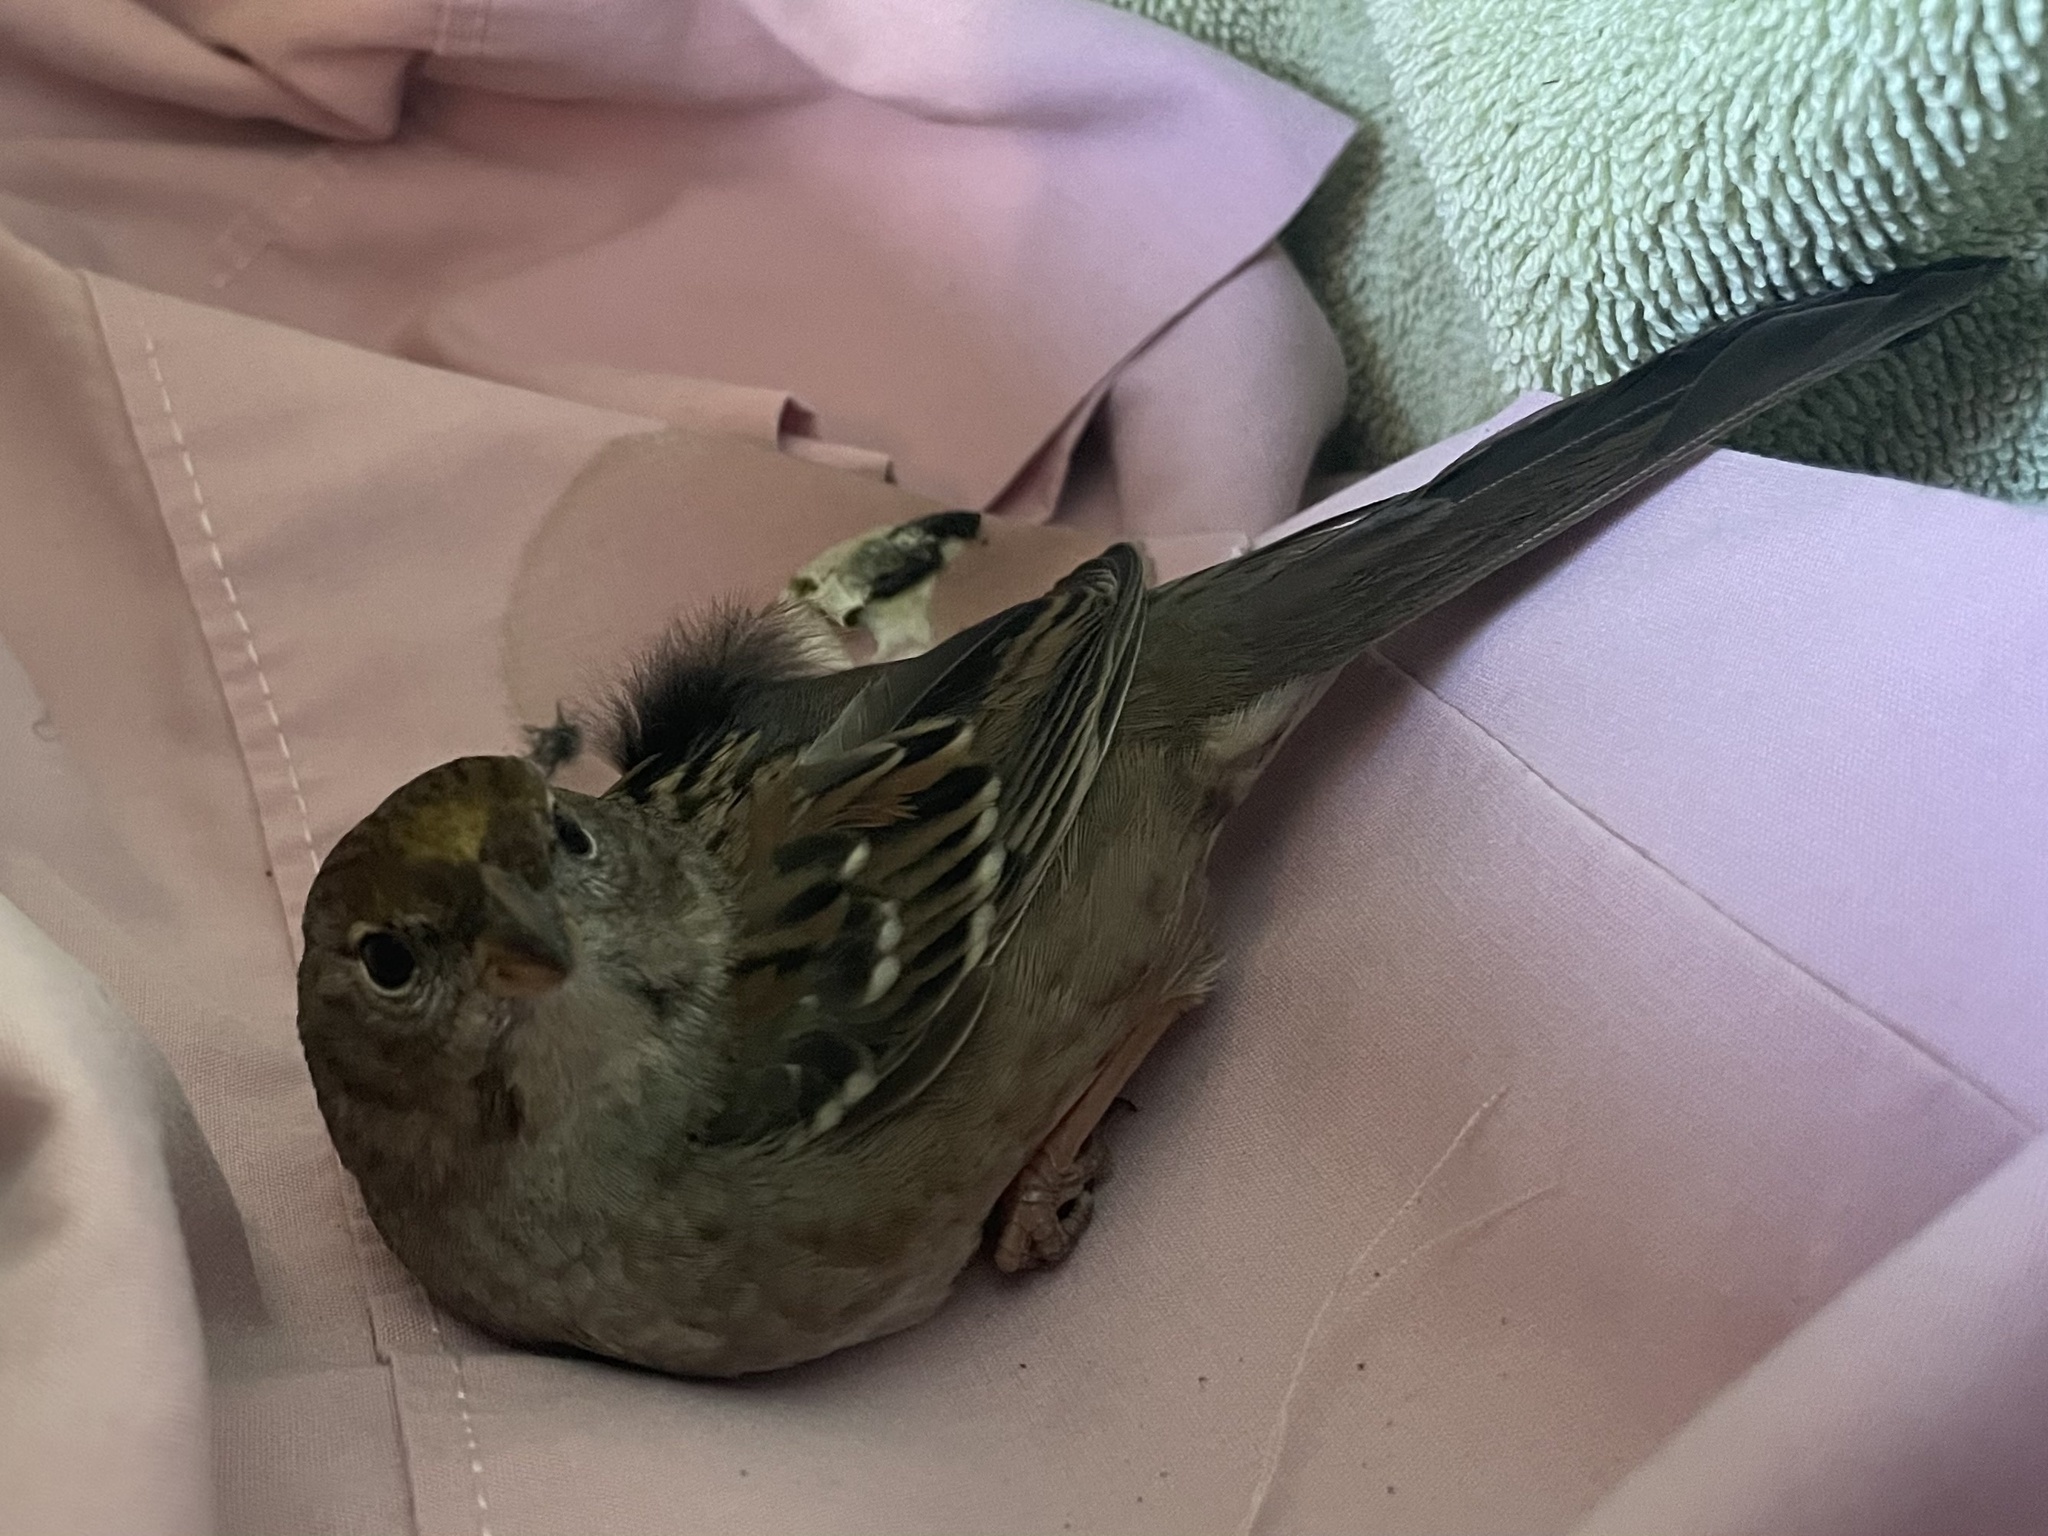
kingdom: Animalia
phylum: Chordata
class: Aves
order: Passeriformes
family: Passerellidae
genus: Zonotrichia
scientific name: Zonotrichia atricapilla
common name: Golden-crowned sparrow
